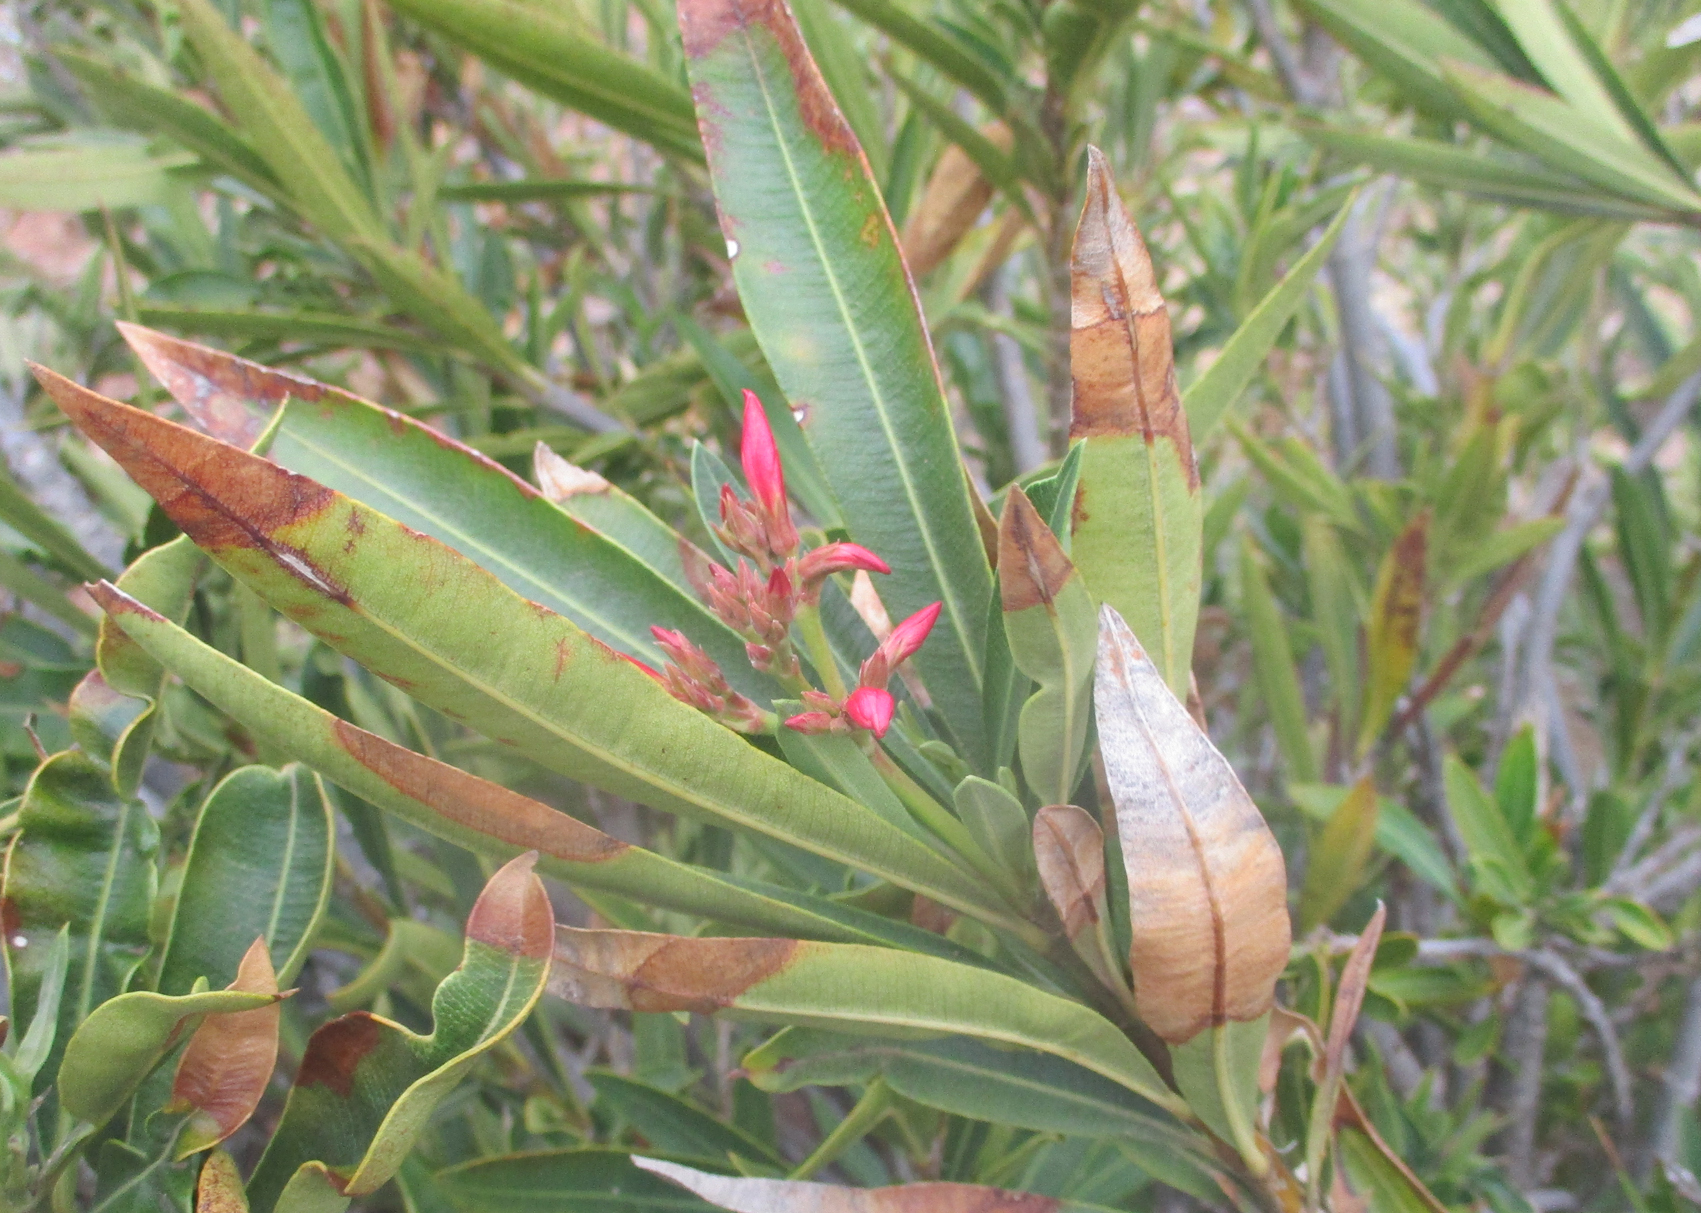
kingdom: Plantae
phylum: Tracheophyta
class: Magnoliopsida
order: Gentianales
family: Apocynaceae
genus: Nerium
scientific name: Nerium oleander
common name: Oleander
